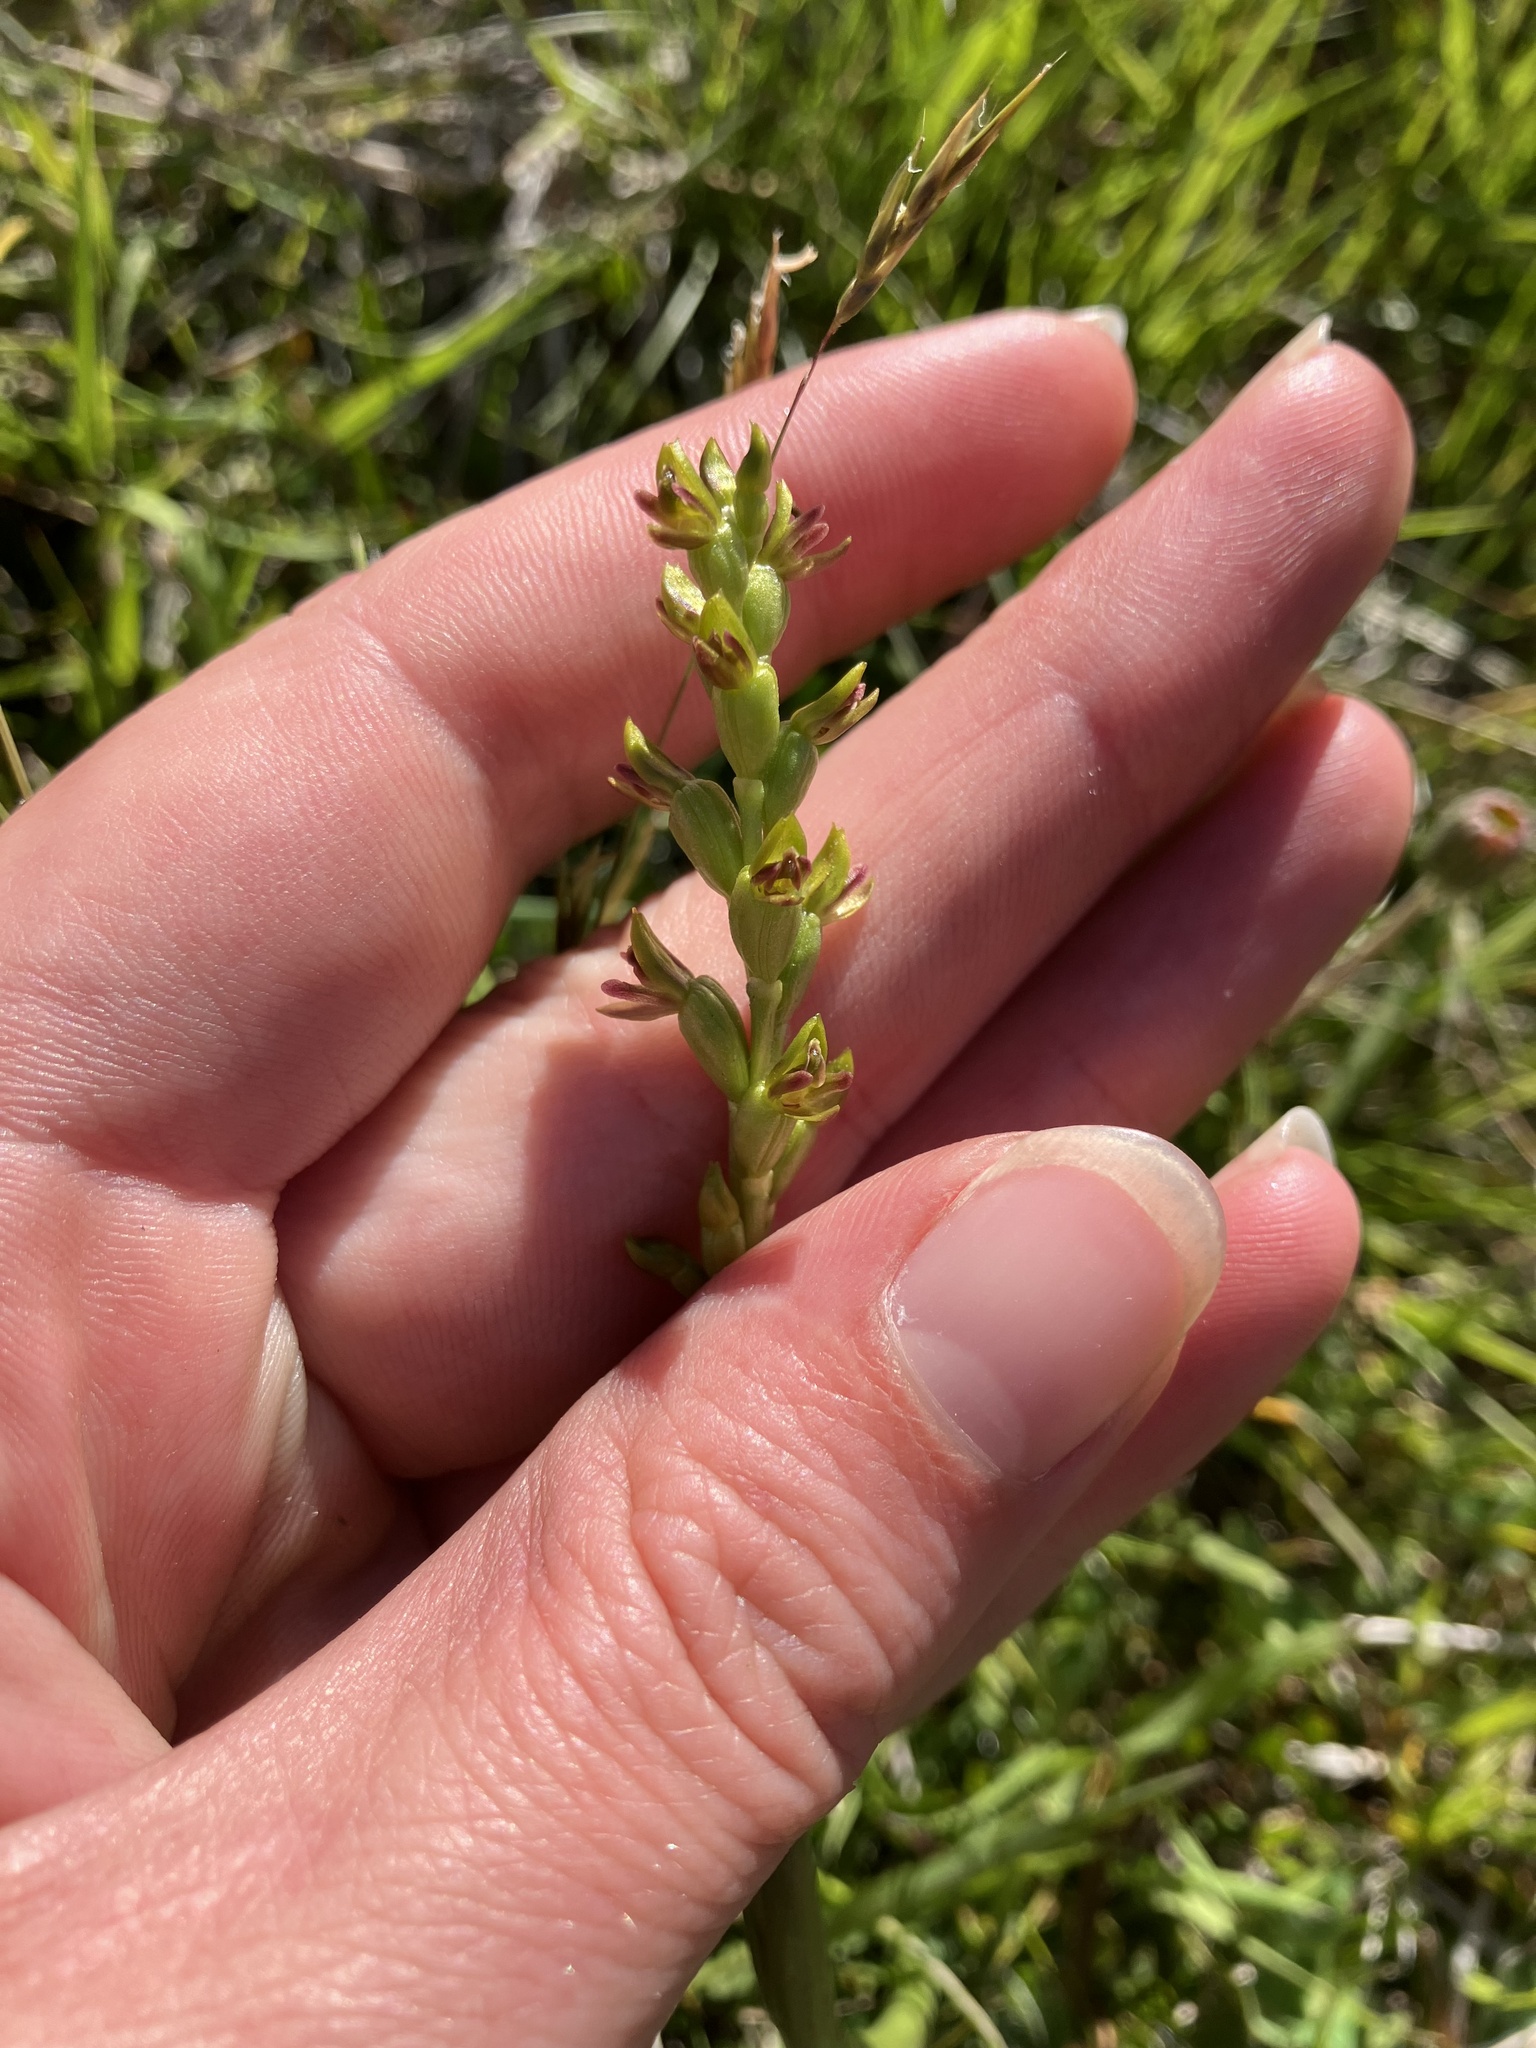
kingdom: Plantae
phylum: Tracheophyta
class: Liliopsida
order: Asparagales
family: Orchidaceae
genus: Prasophyllum
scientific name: Prasophyllum colensoi
